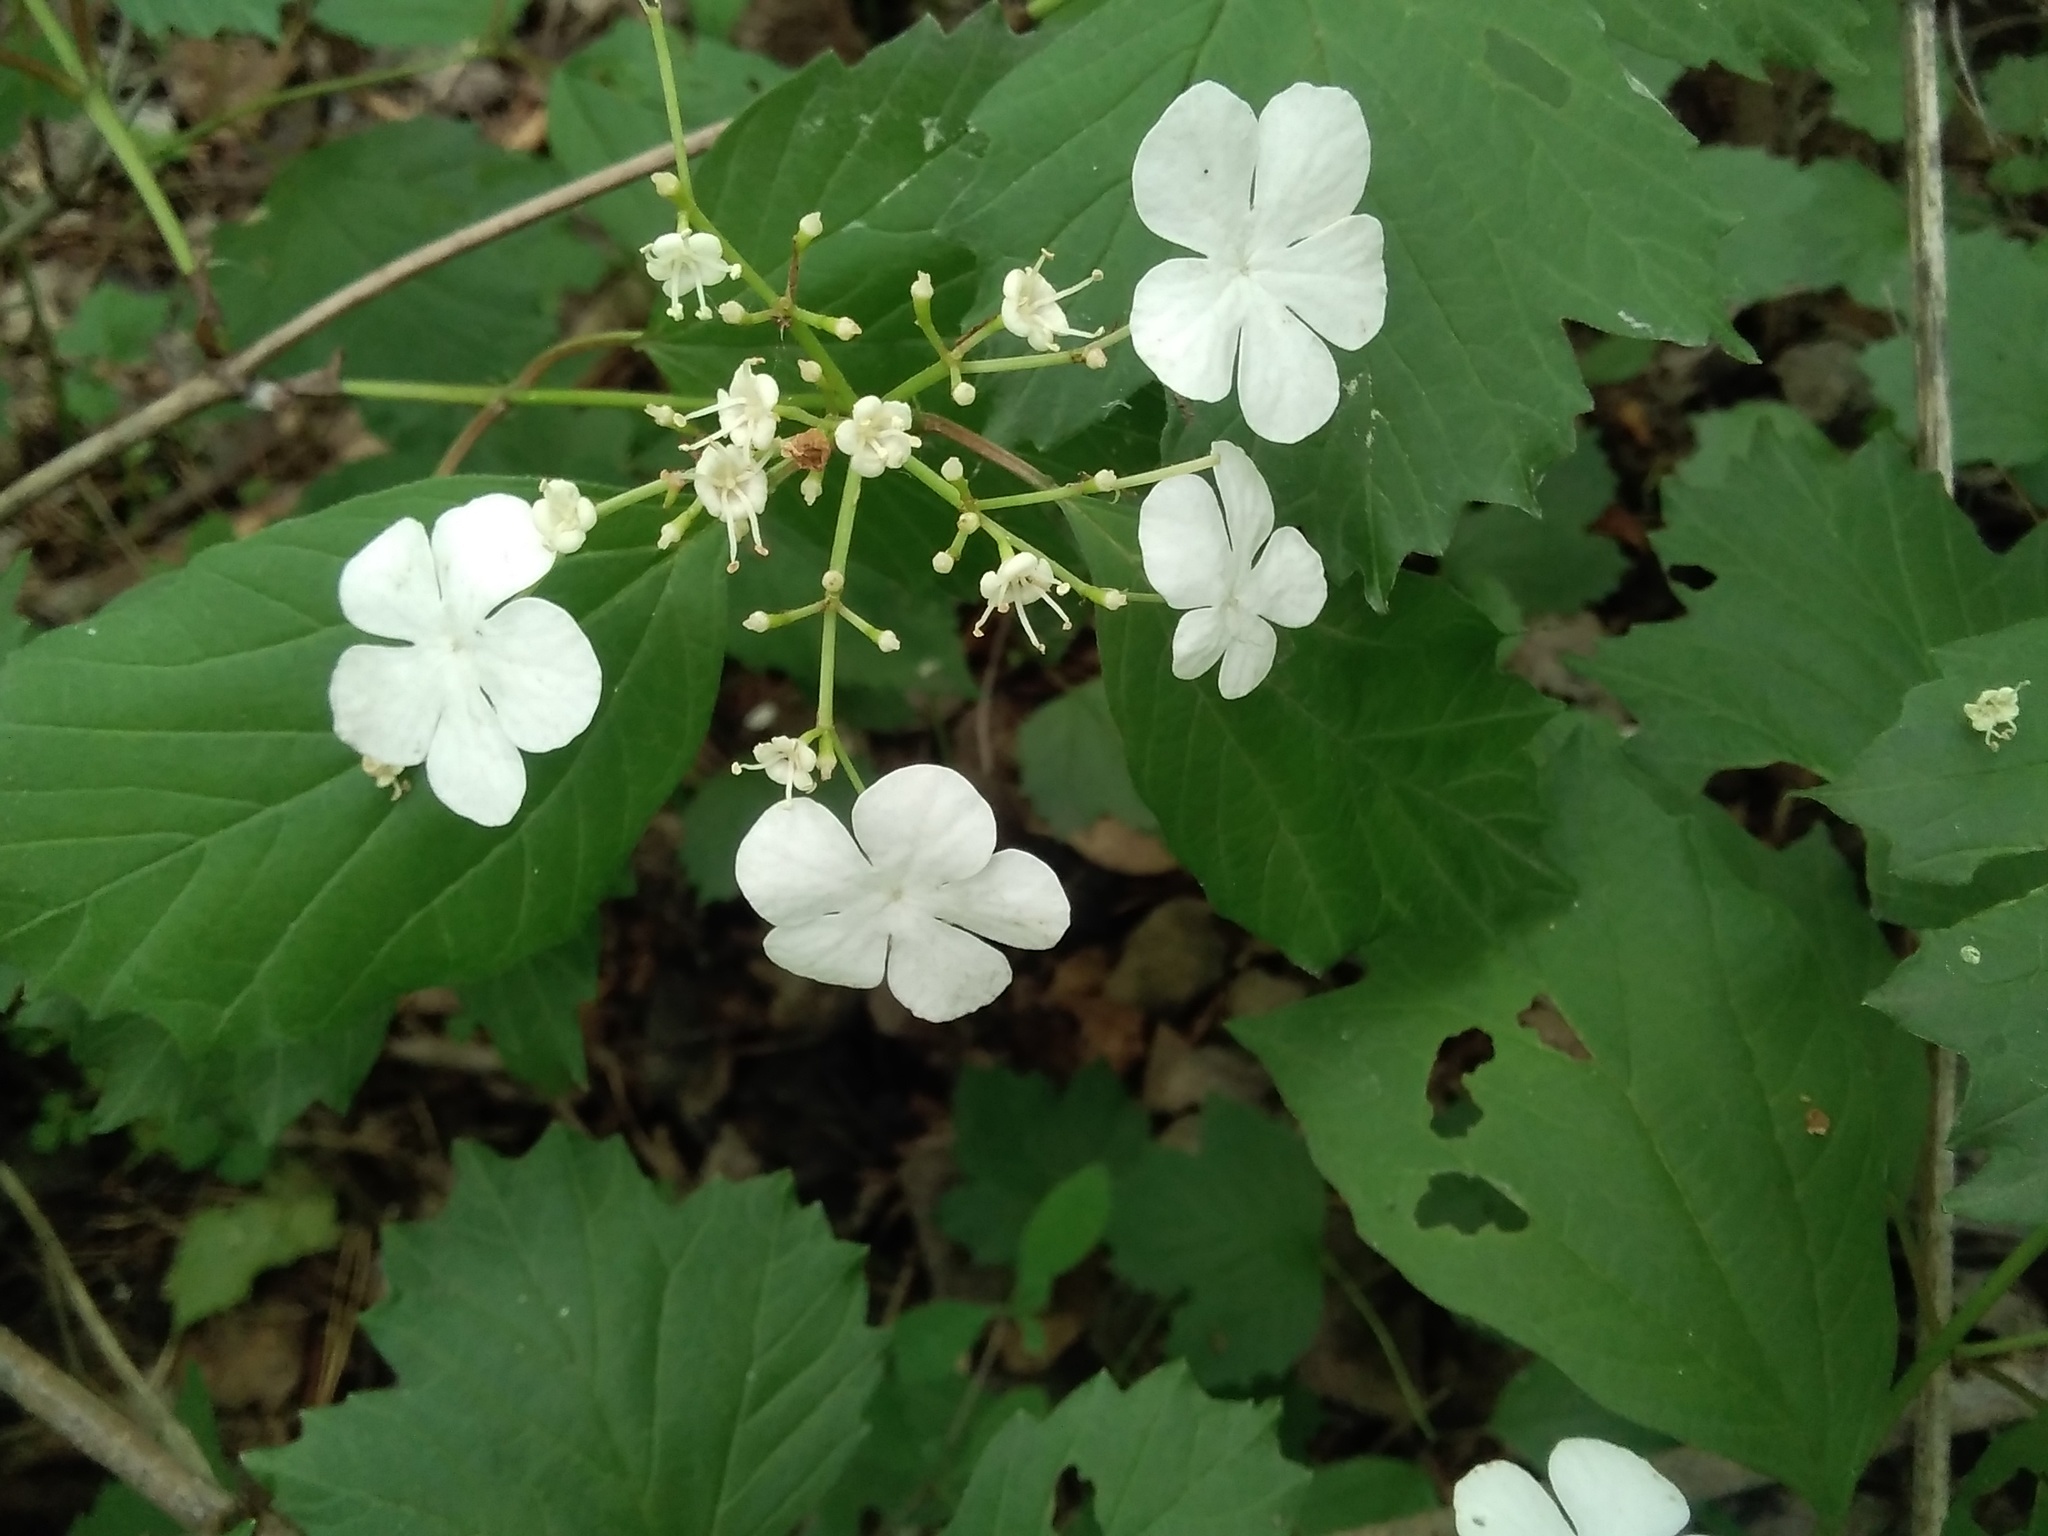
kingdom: Plantae
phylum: Tracheophyta
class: Magnoliopsida
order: Dipsacales
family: Viburnaceae
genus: Viburnum
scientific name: Viburnum opulus
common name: Guelder-rose
